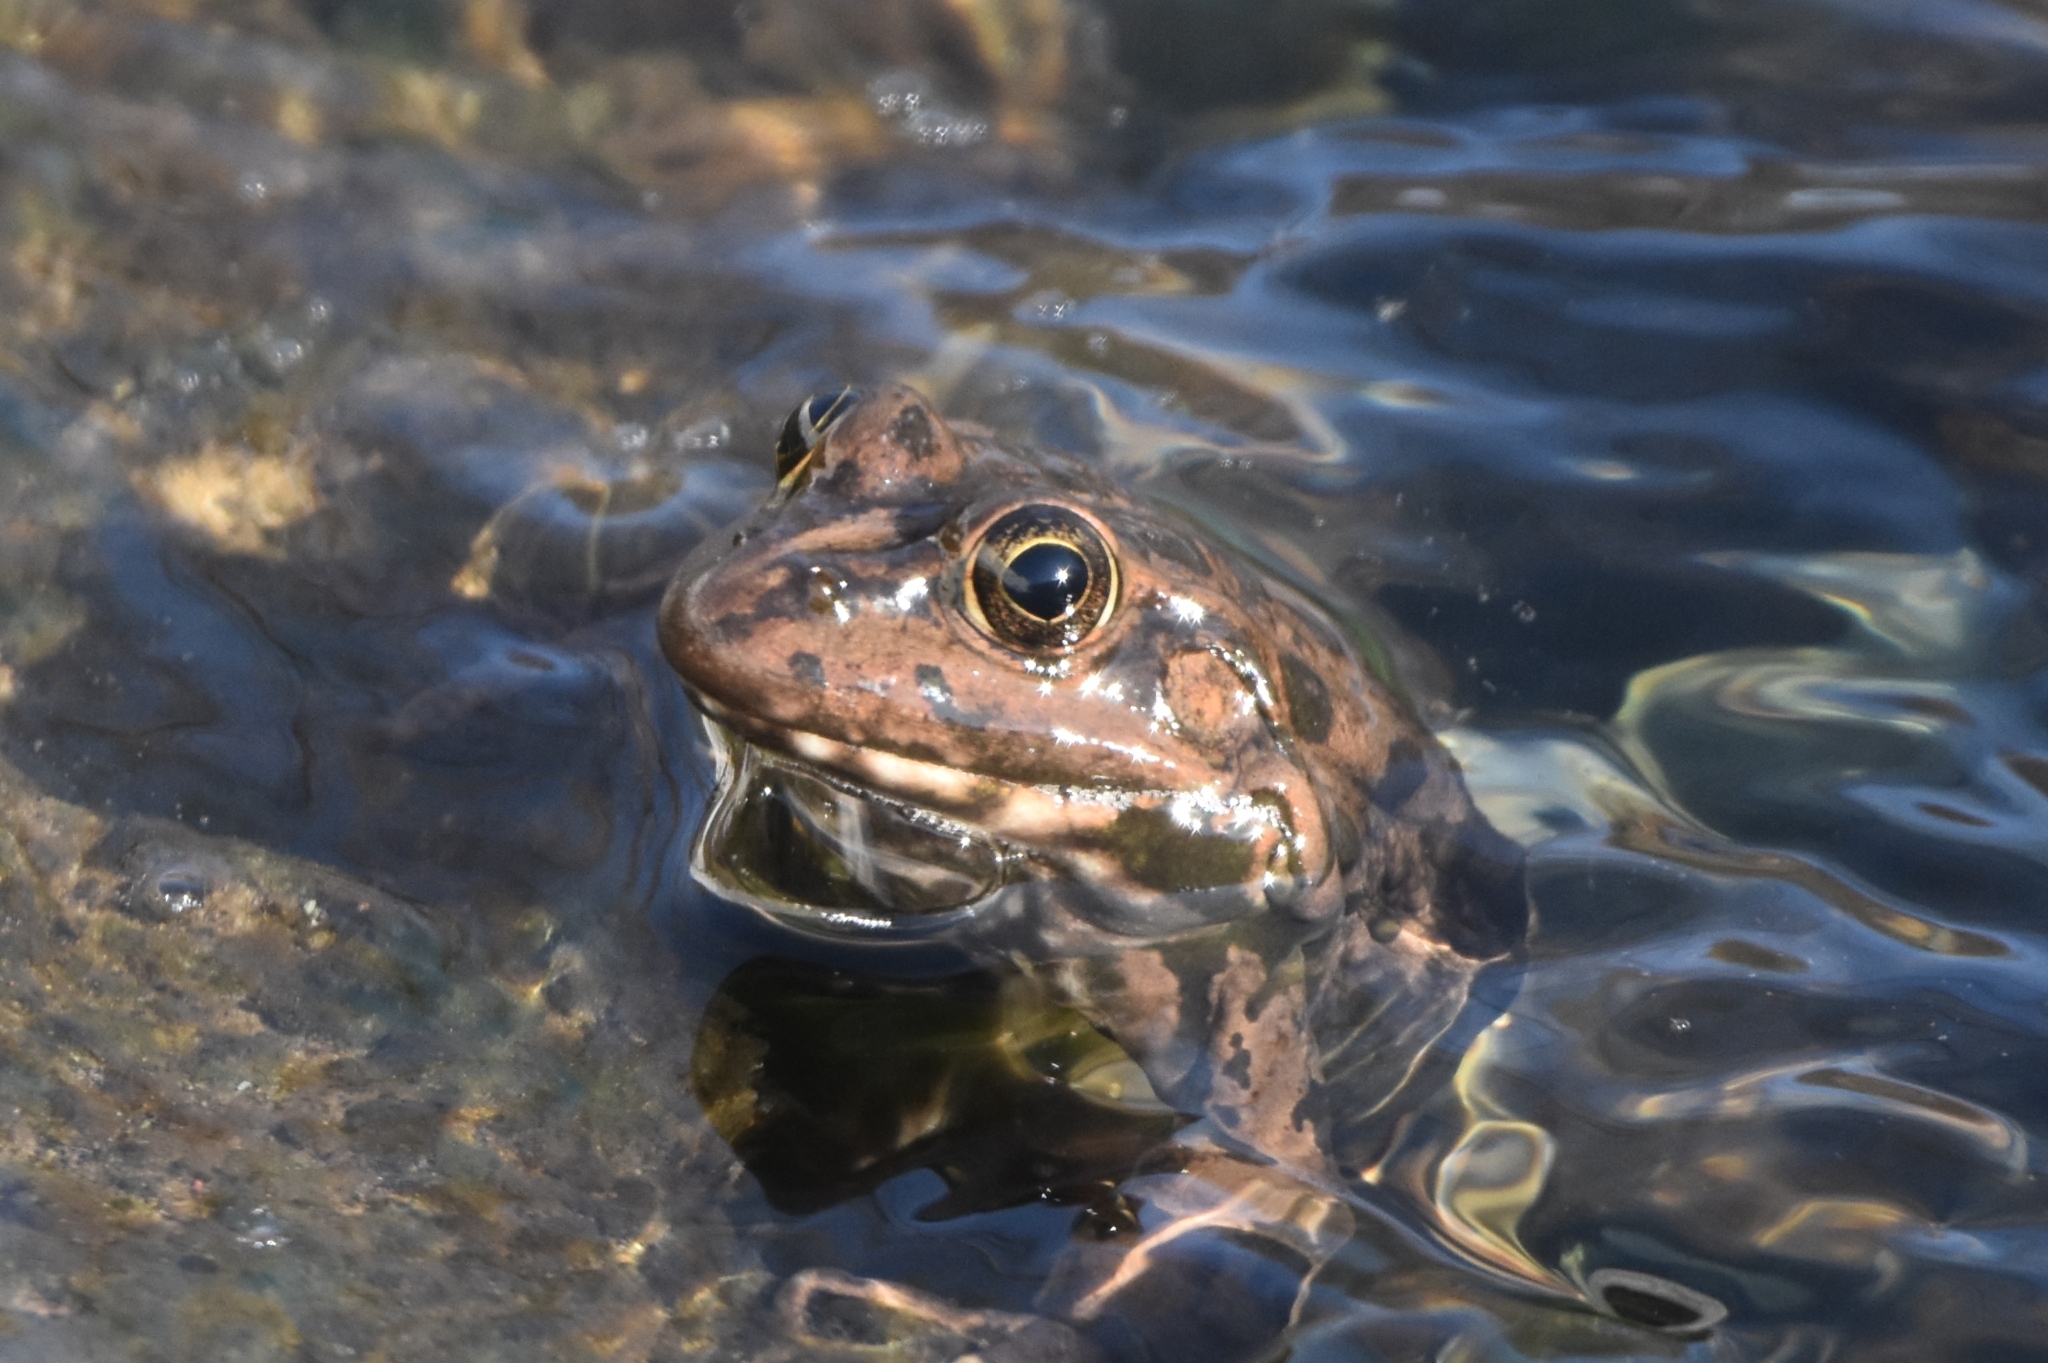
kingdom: Animalia
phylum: Chordata
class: Amphibia
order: Anura
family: Ranidae
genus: Pelophylax
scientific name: Pelophylax ridibundus
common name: Marsh frog
